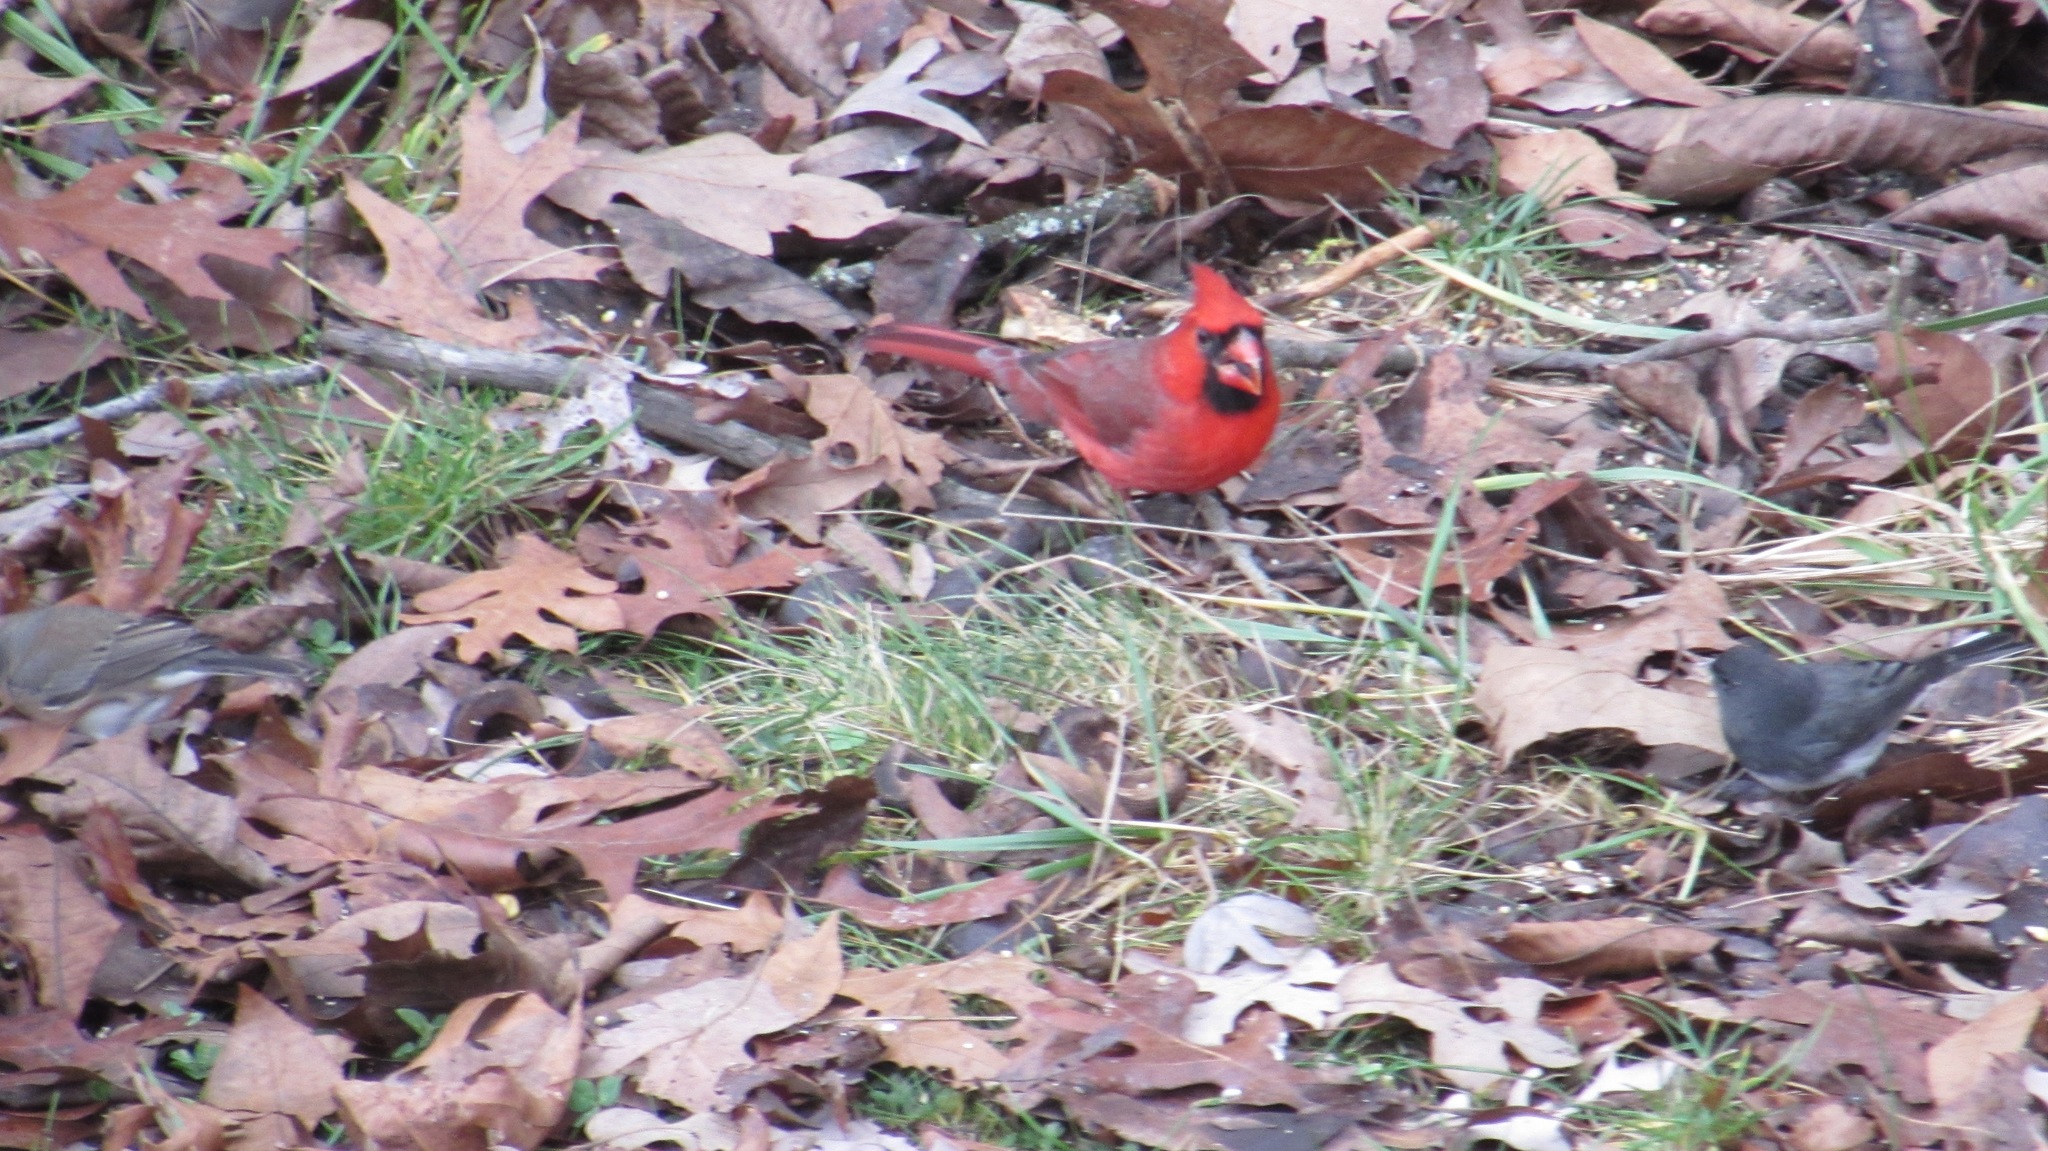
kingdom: Animalia
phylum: Chordata
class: Aves
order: Passeriformes
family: Cardinalidae
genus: Cardinalis
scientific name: Cardinalis cardinalis
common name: Northern cardinal
